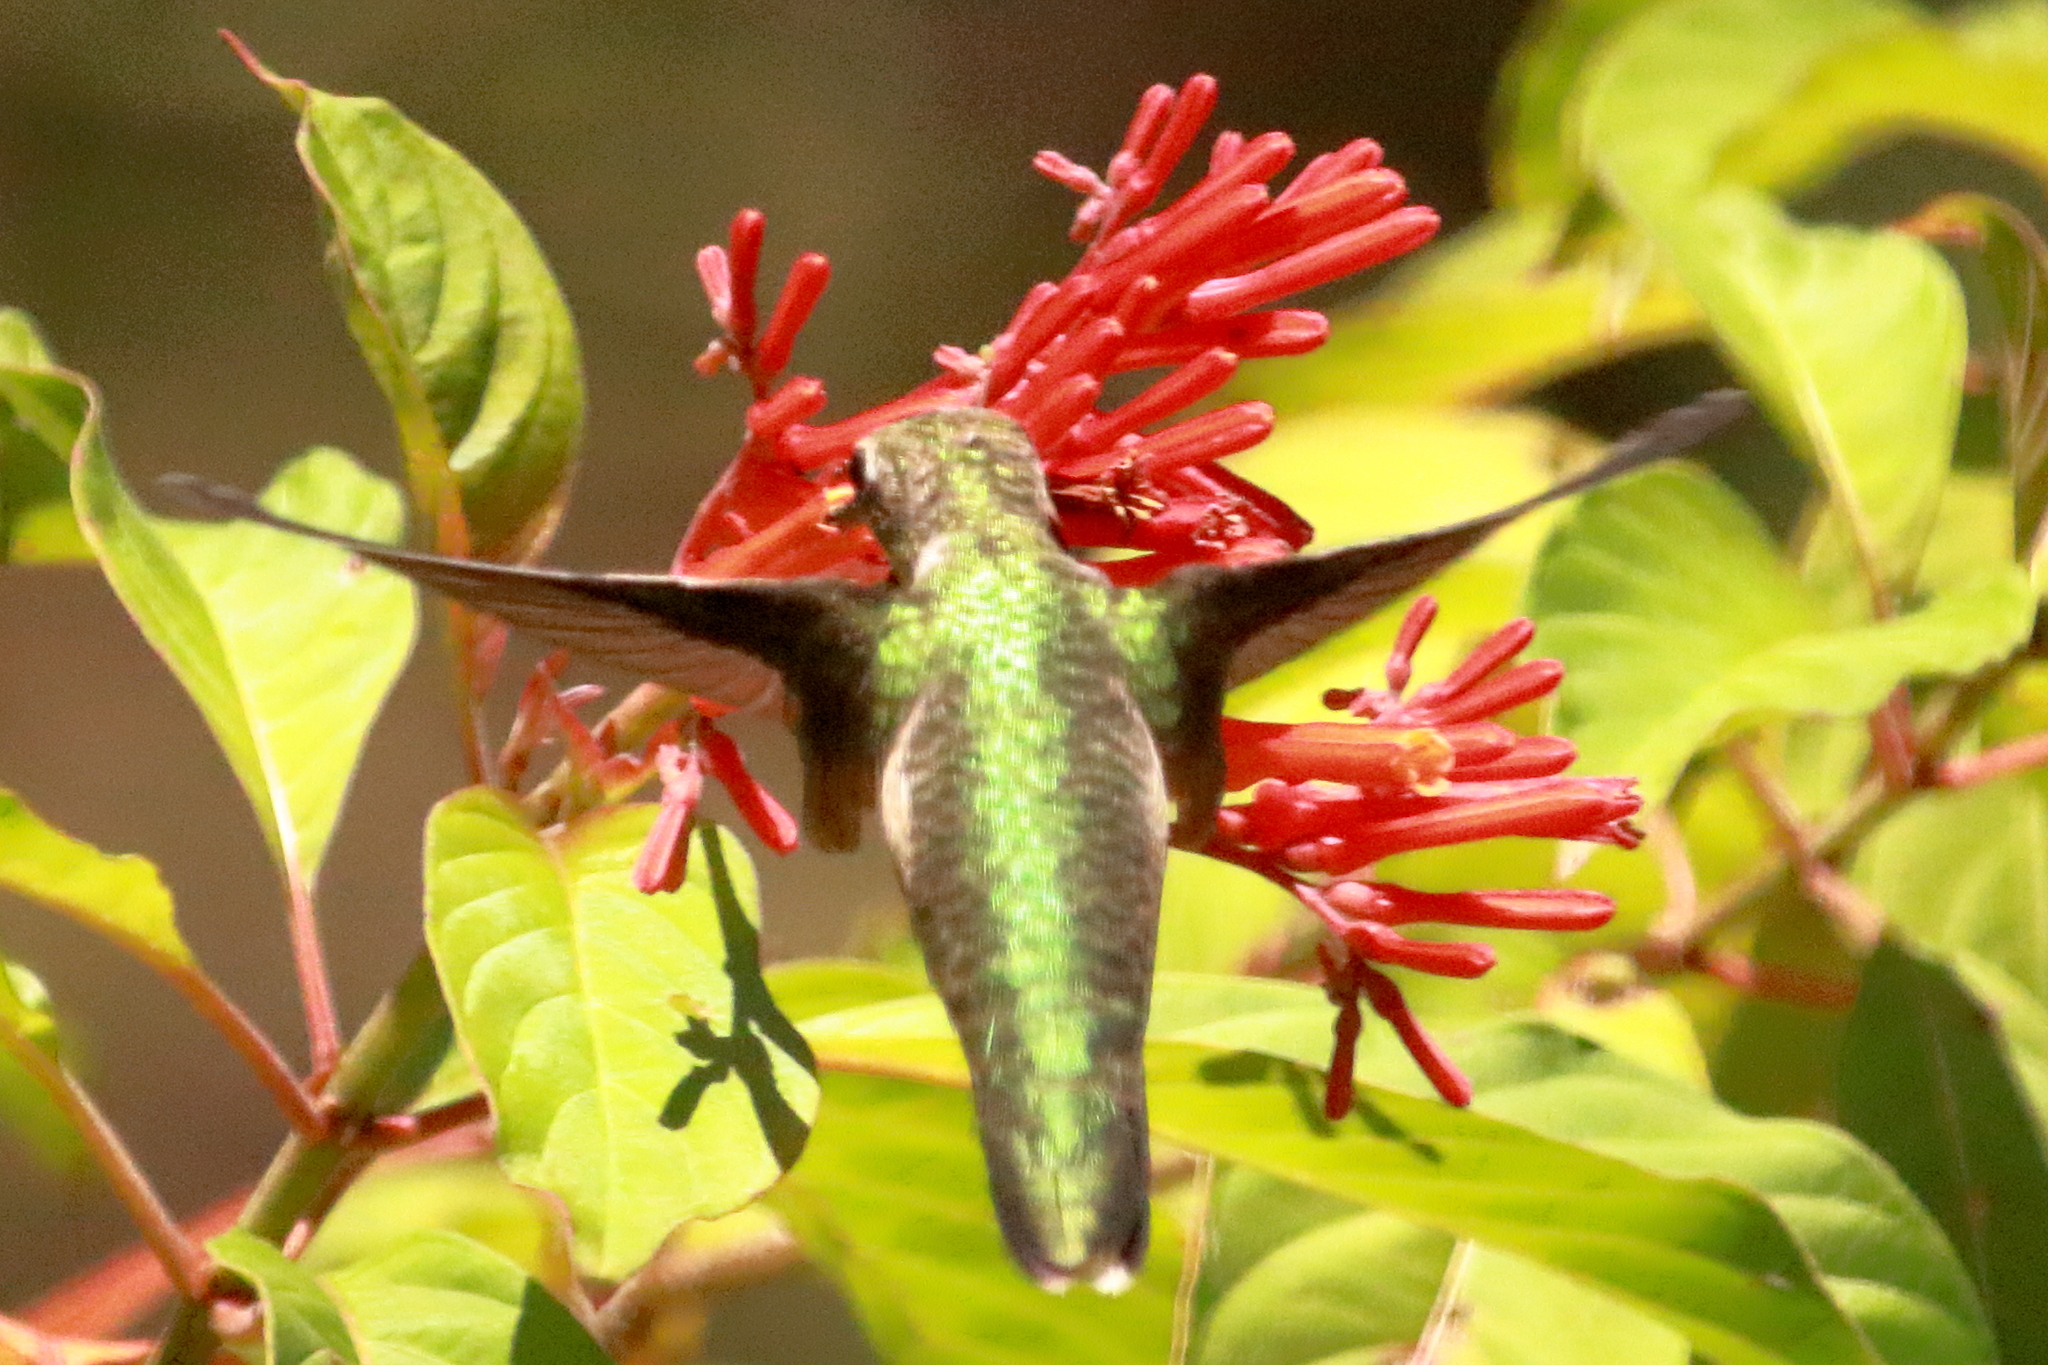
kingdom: Animalia
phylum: Chordata
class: Aves
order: Apodiformes
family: Trochilidae
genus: Archilochus
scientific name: Archilochus colubris
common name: Ruby-throated hummingbird
